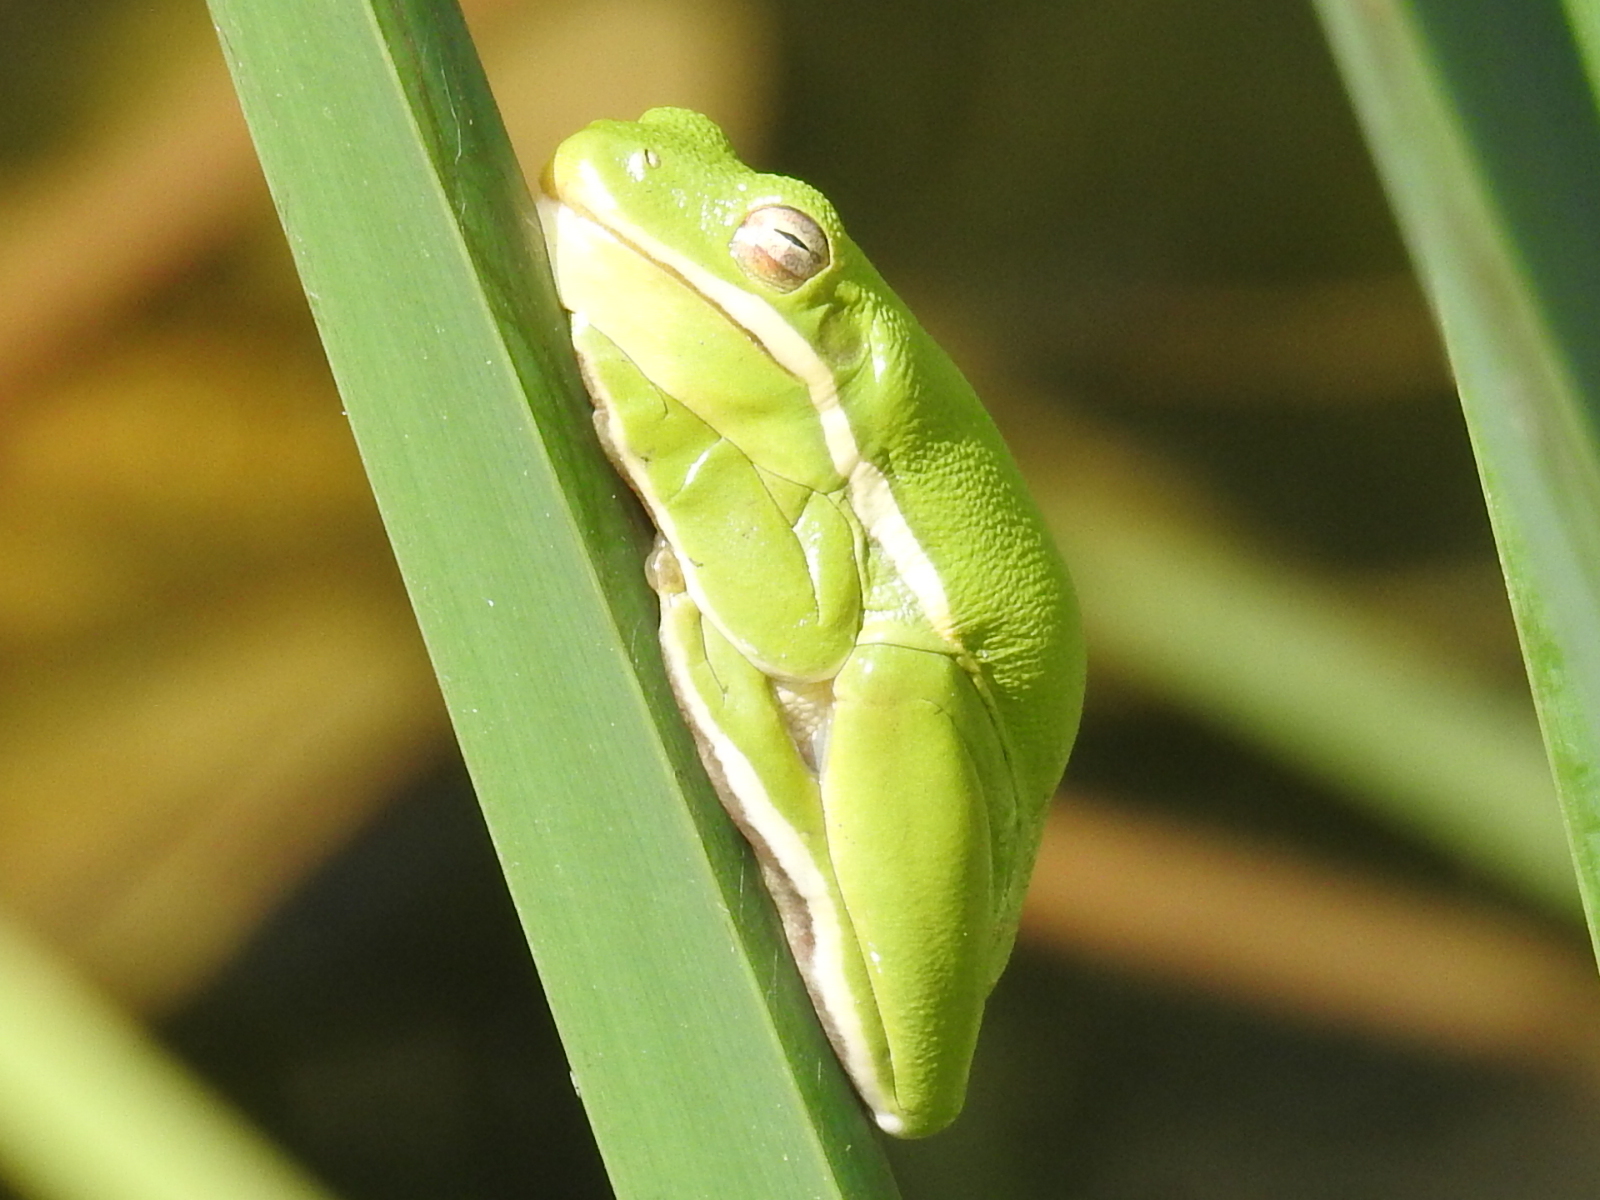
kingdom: Animalia
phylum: Chordata
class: Amphibia
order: Anura
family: Hylidae
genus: Dryophytes
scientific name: Dryophytes cinereus
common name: Green treefrog
